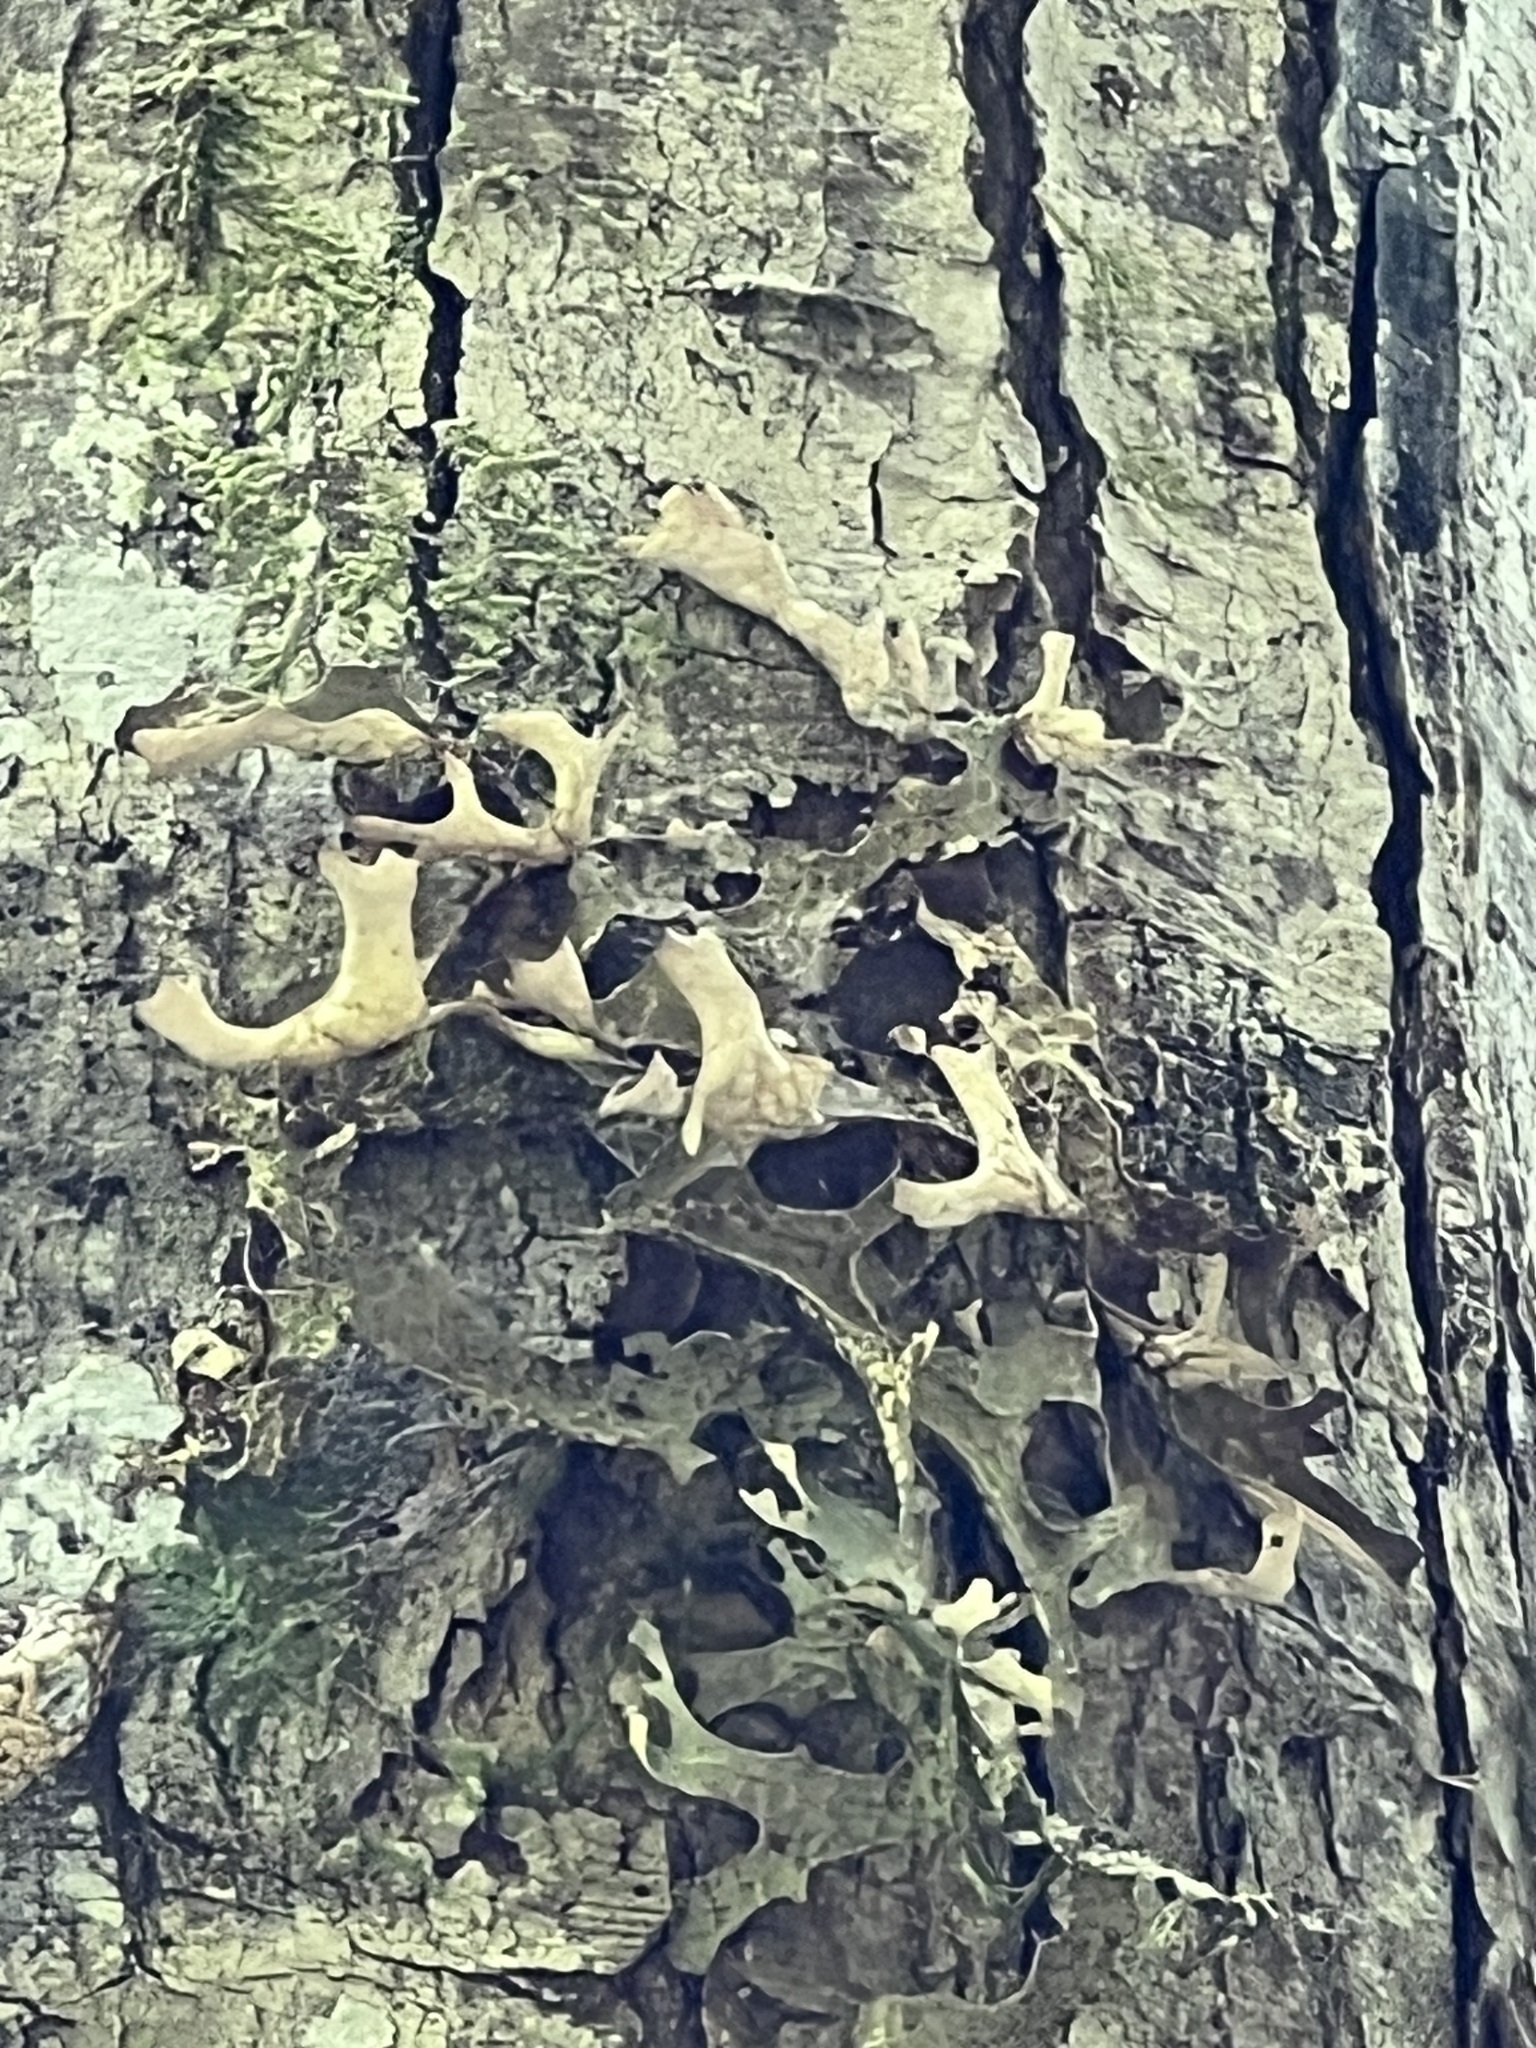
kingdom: Fungi
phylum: Ascomycota
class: Lecanoromycetes
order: Peltigerales
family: Lobariaceae
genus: Lobaria
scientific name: Lobaria pulmonaria
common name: Lungwort
